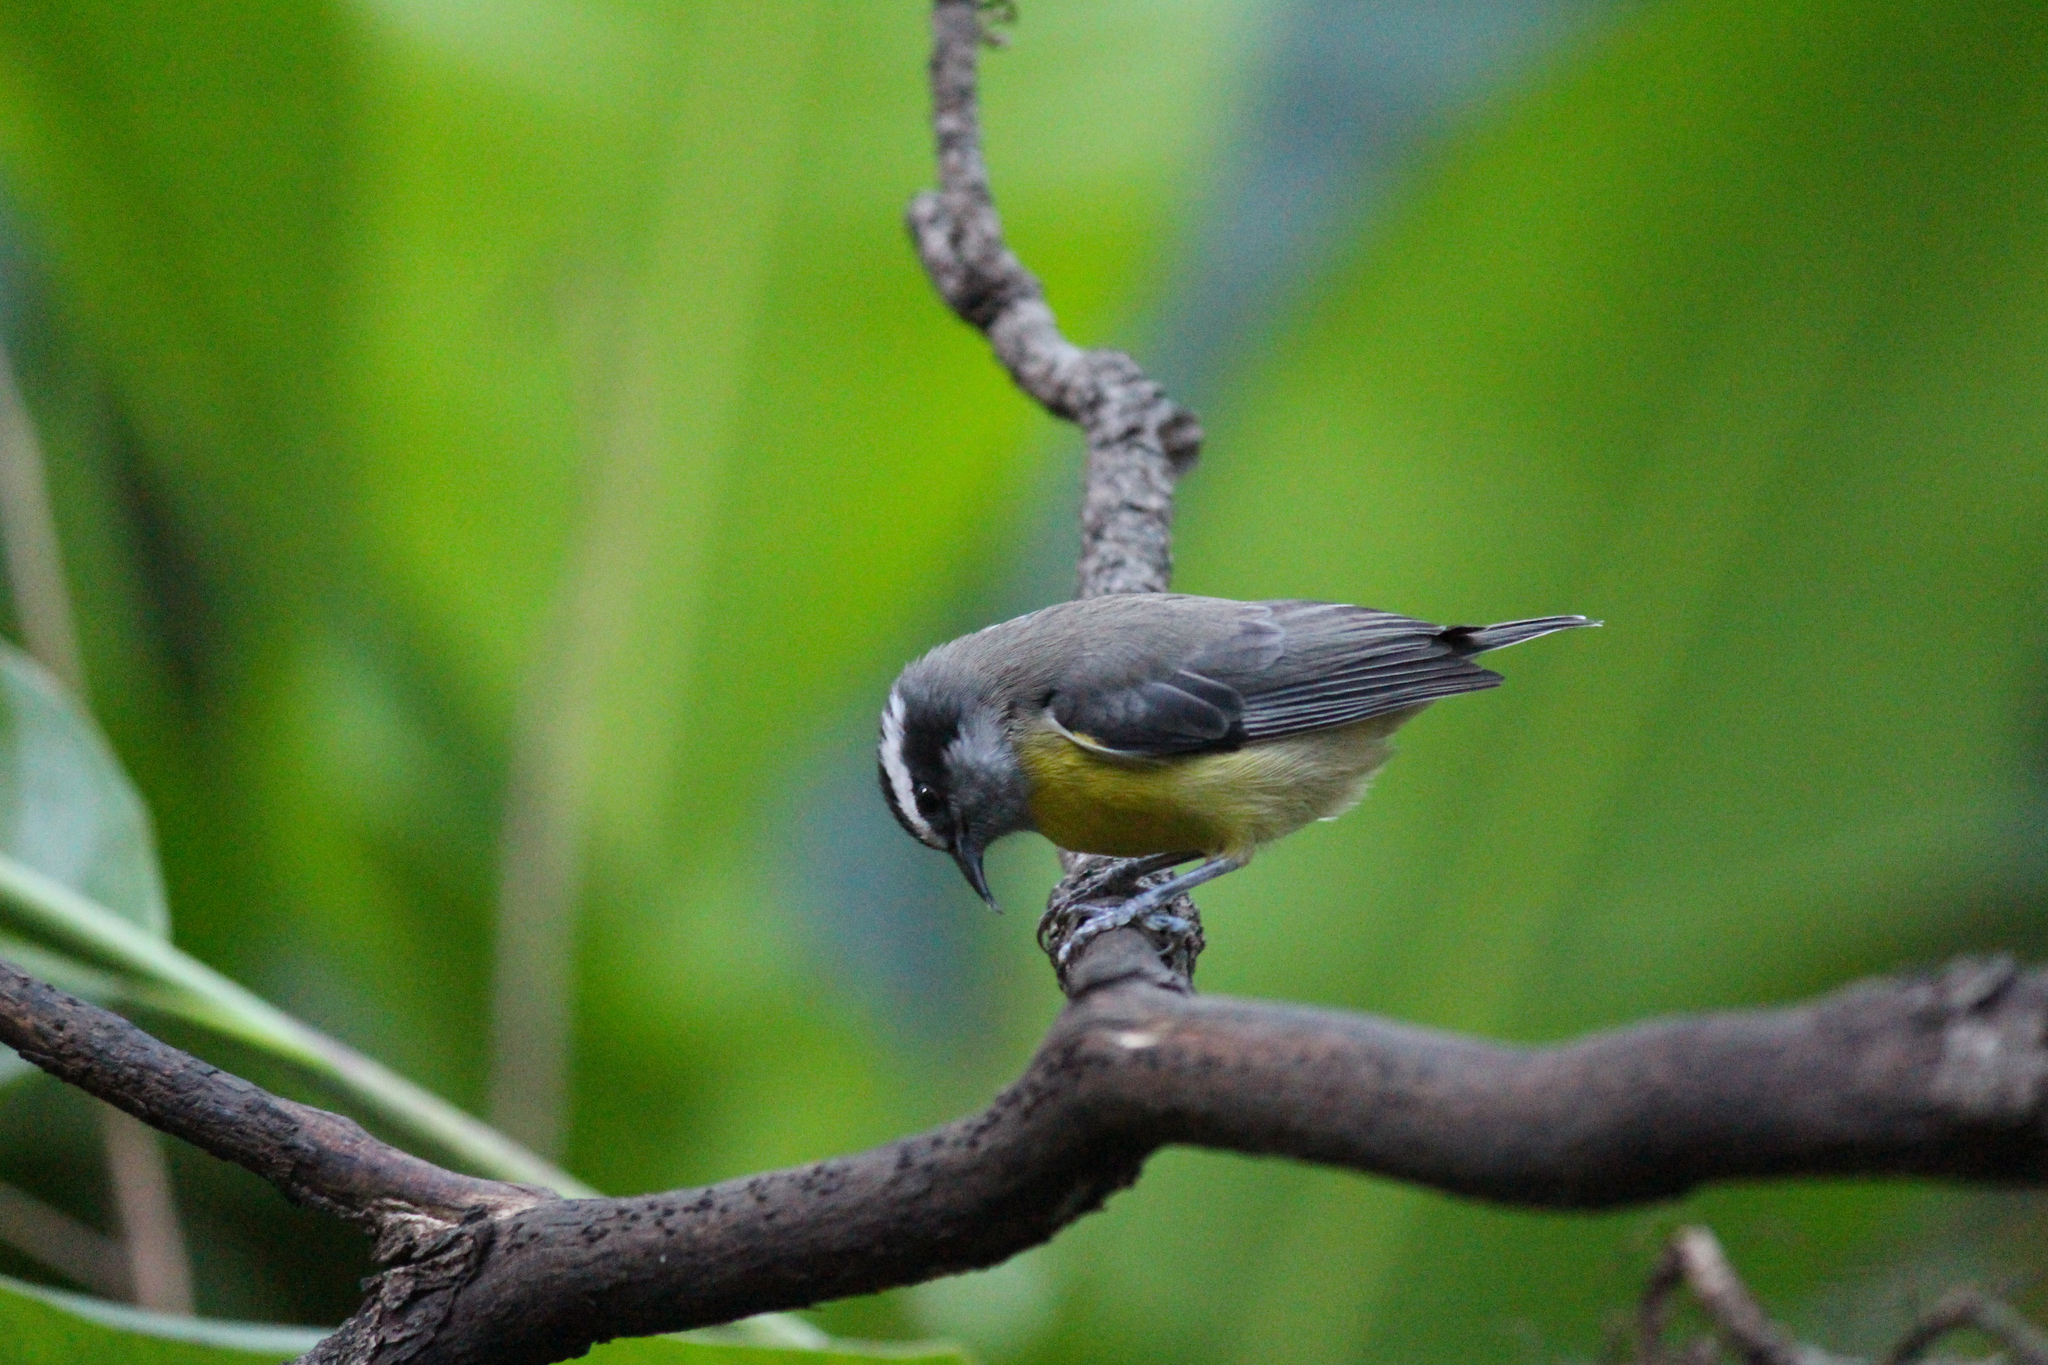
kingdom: Animalia
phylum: Chordata
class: Aves
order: Passeriformes
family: Thraupidae
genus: Coereba
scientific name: Coereba flaveola
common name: Bananaquit
